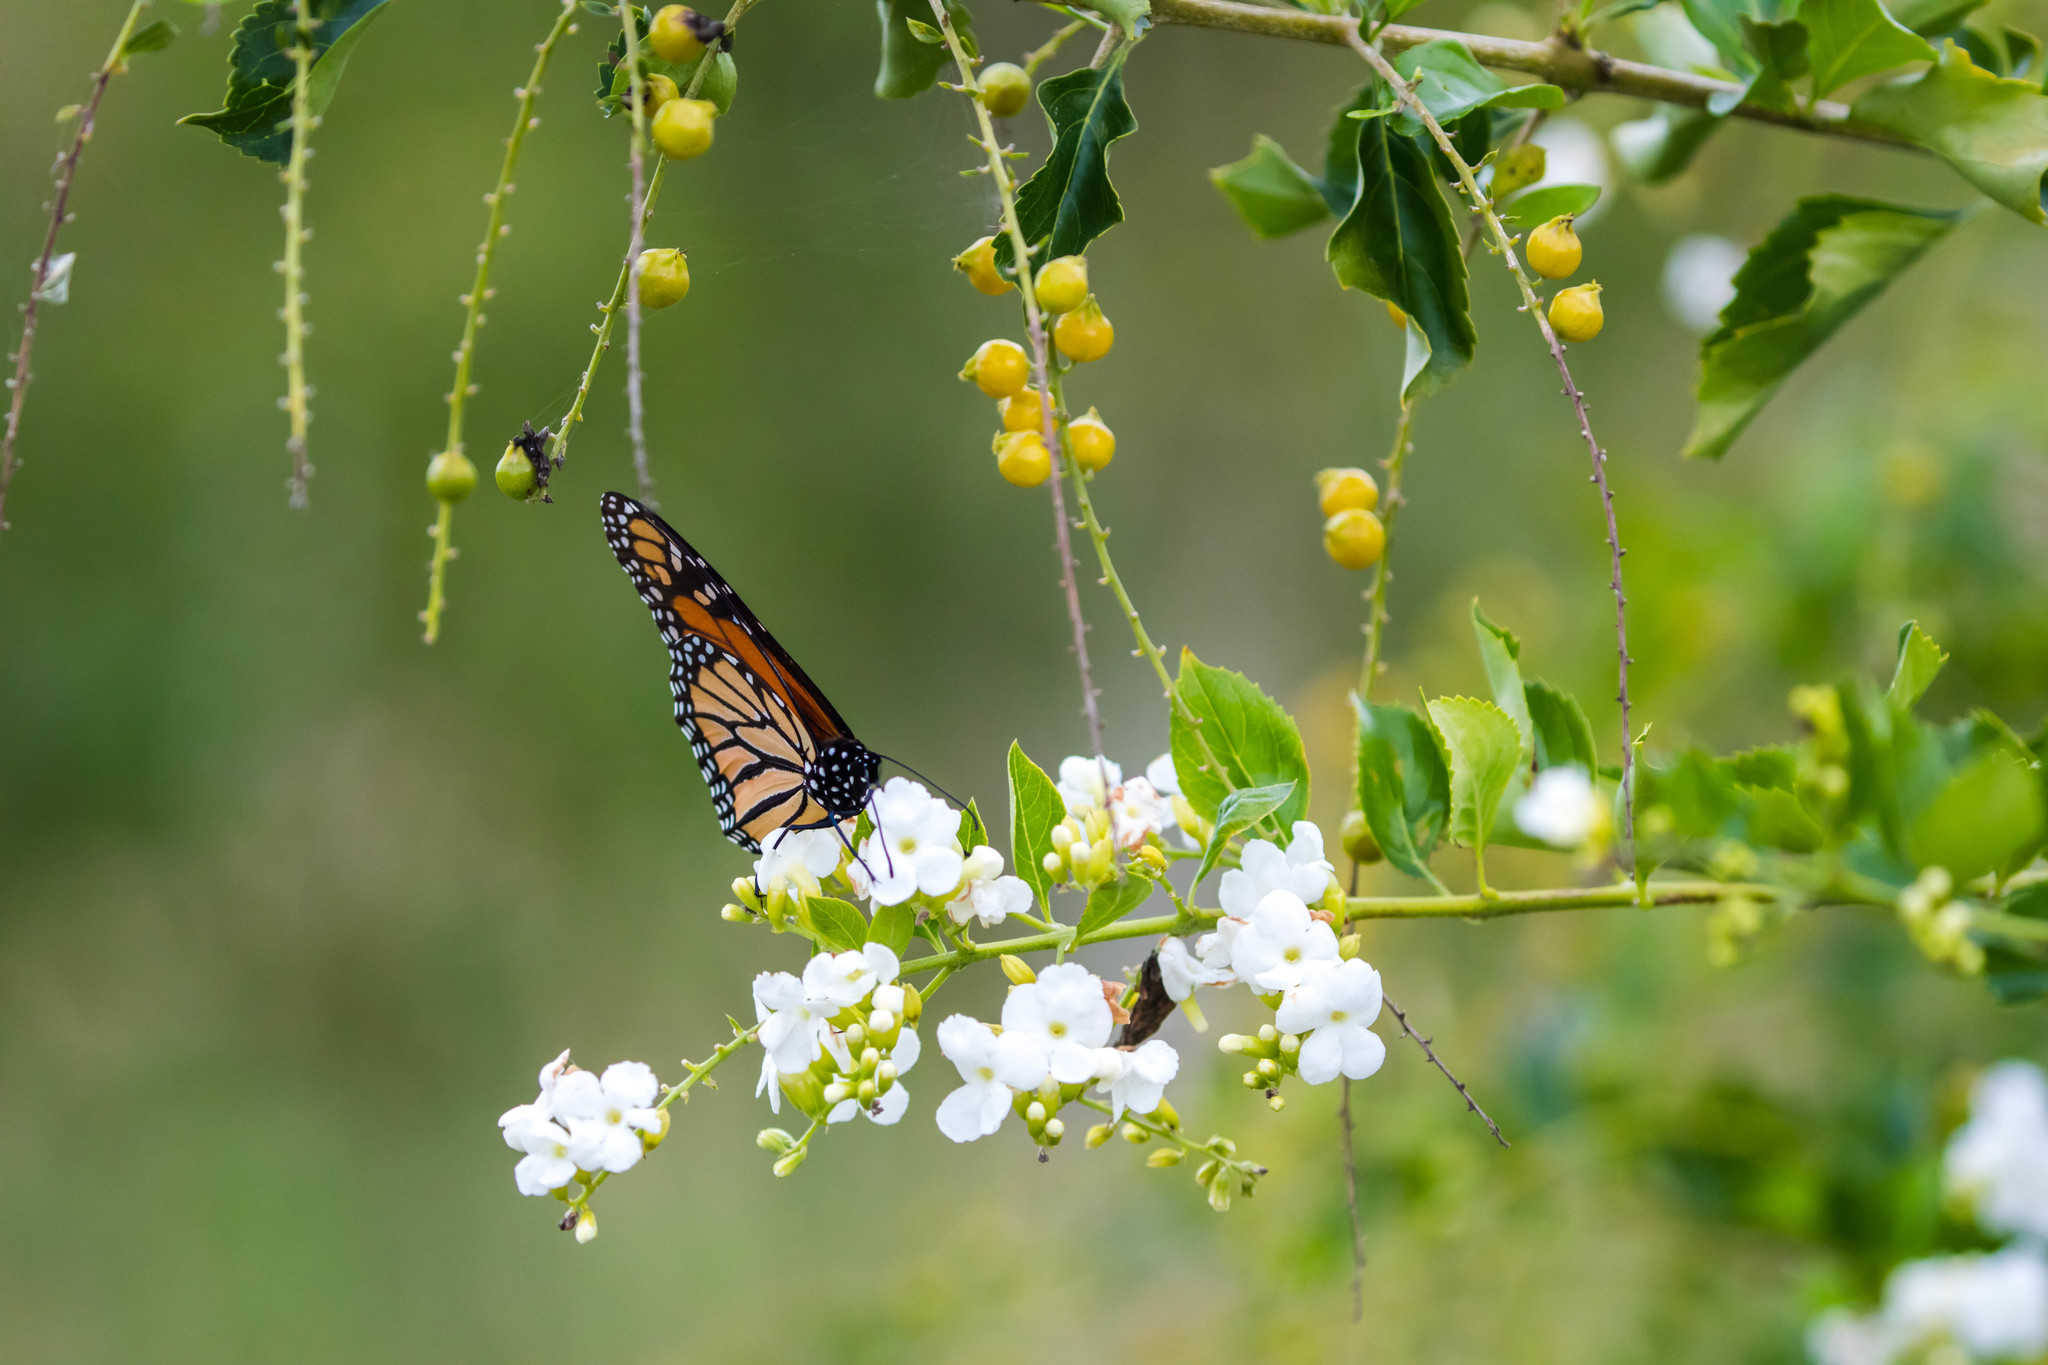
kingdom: Animalia
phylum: Arthropoda
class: Insecta
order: Lepidoptera
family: Nymphalidae
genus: Danaus
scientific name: Danaus plexippus
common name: Monarch
